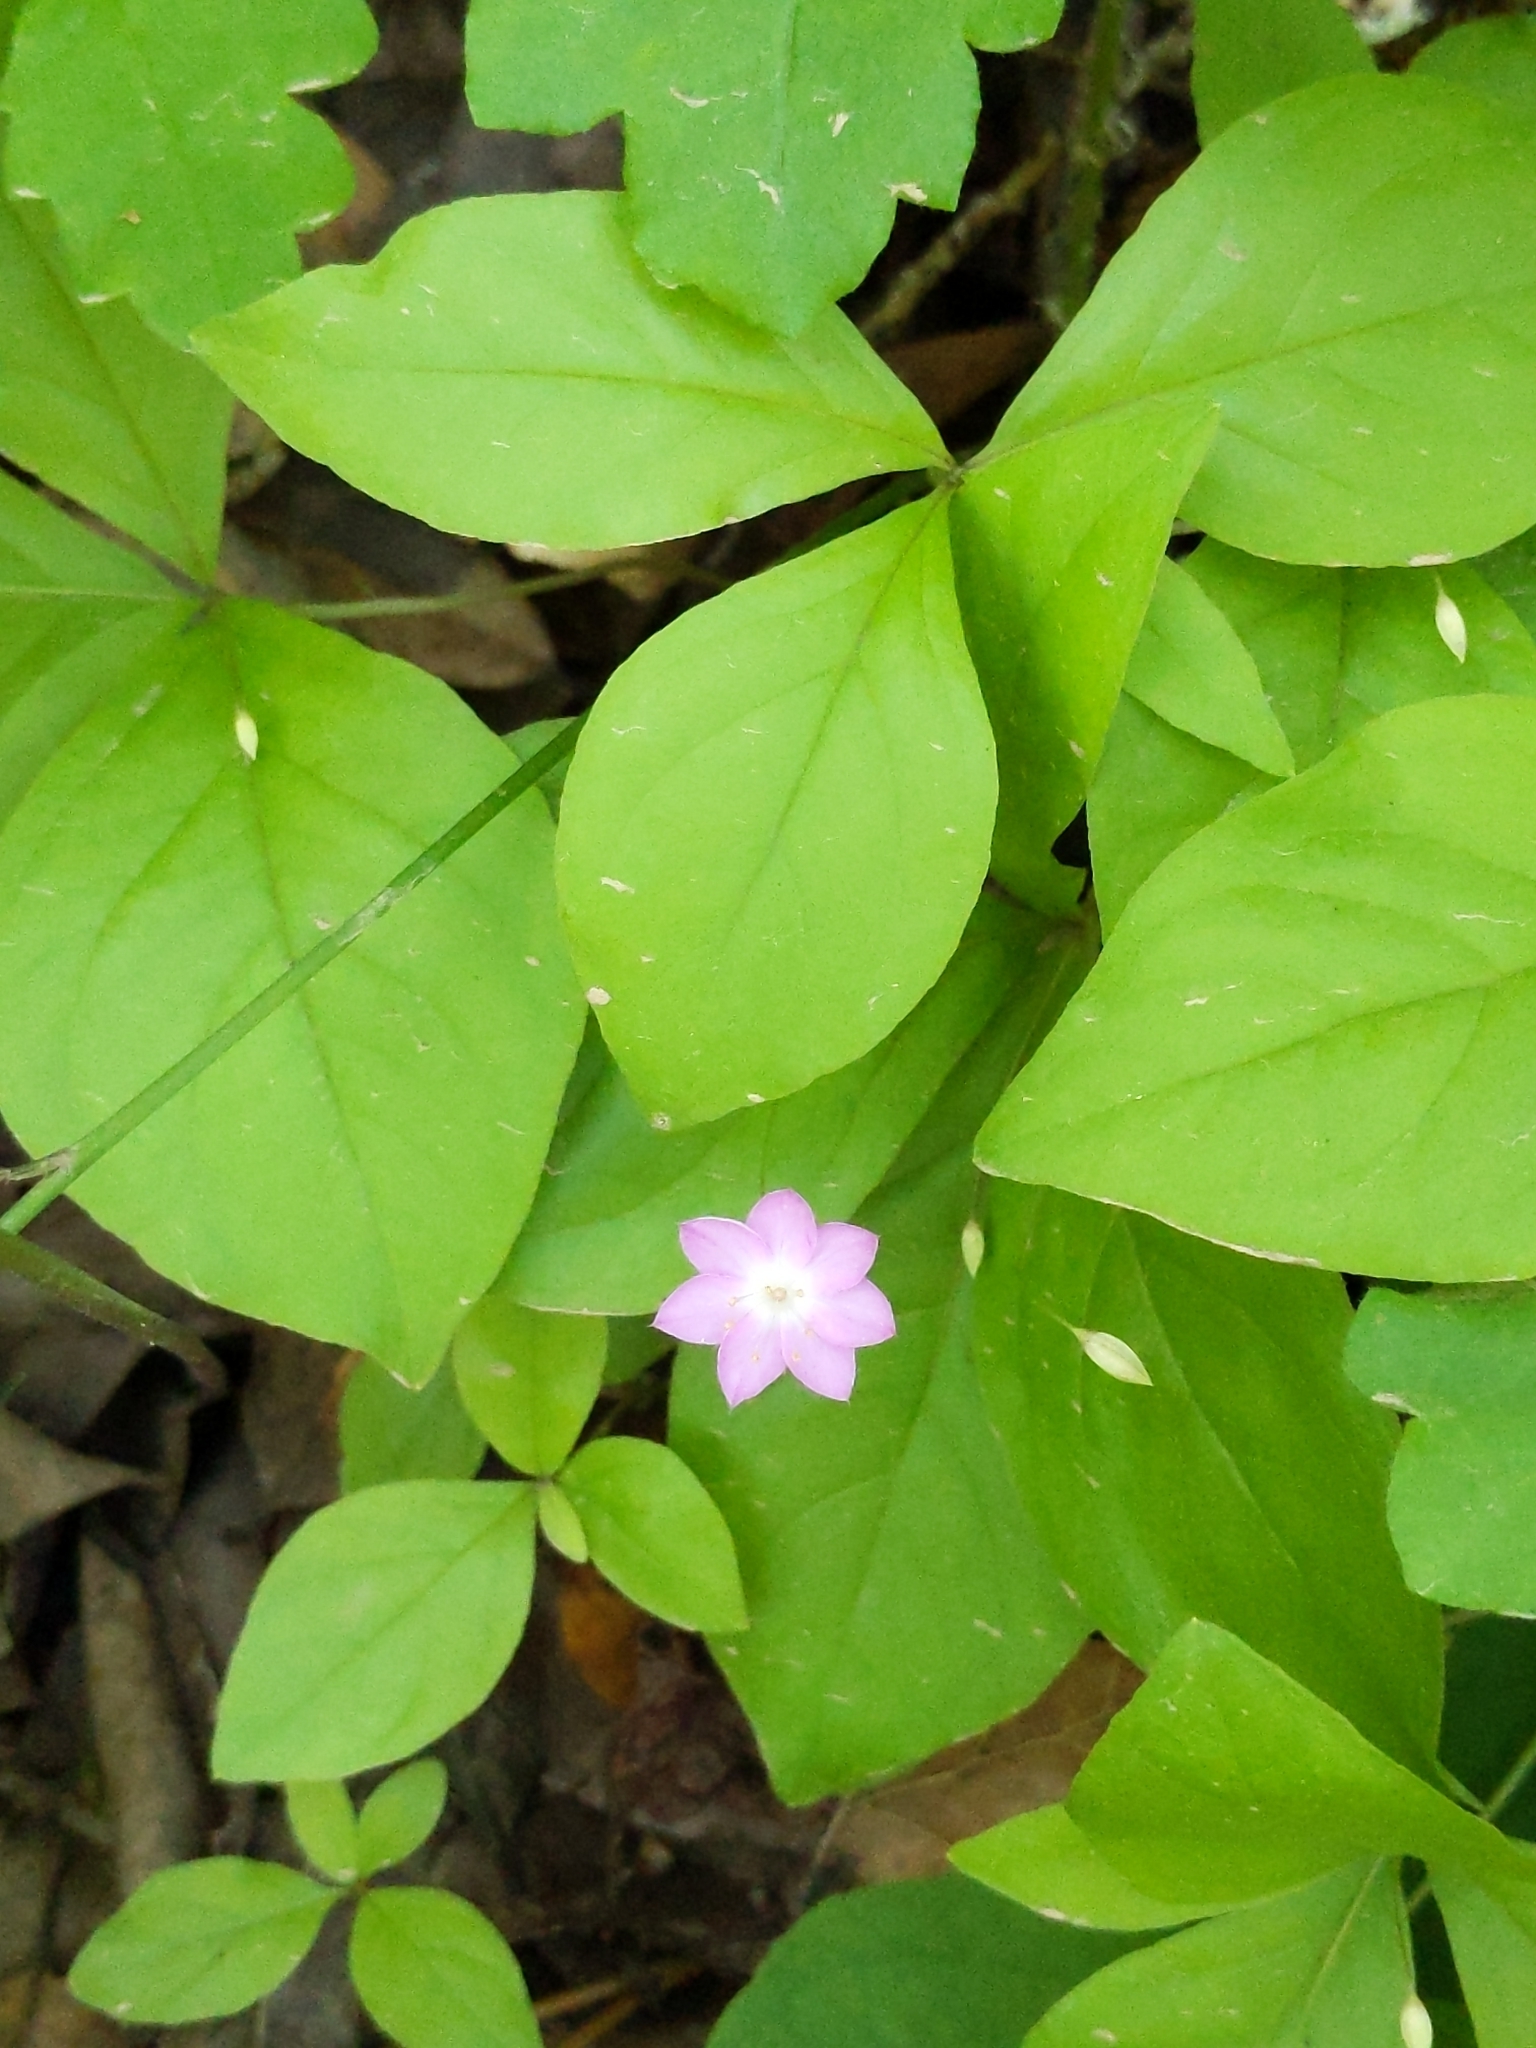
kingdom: Plantae
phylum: Tracheophyta
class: Magnoliopsida
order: Ericales
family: Primulaceae
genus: Lysimachia
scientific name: Lysimachia latifolia
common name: Pacific starflower
